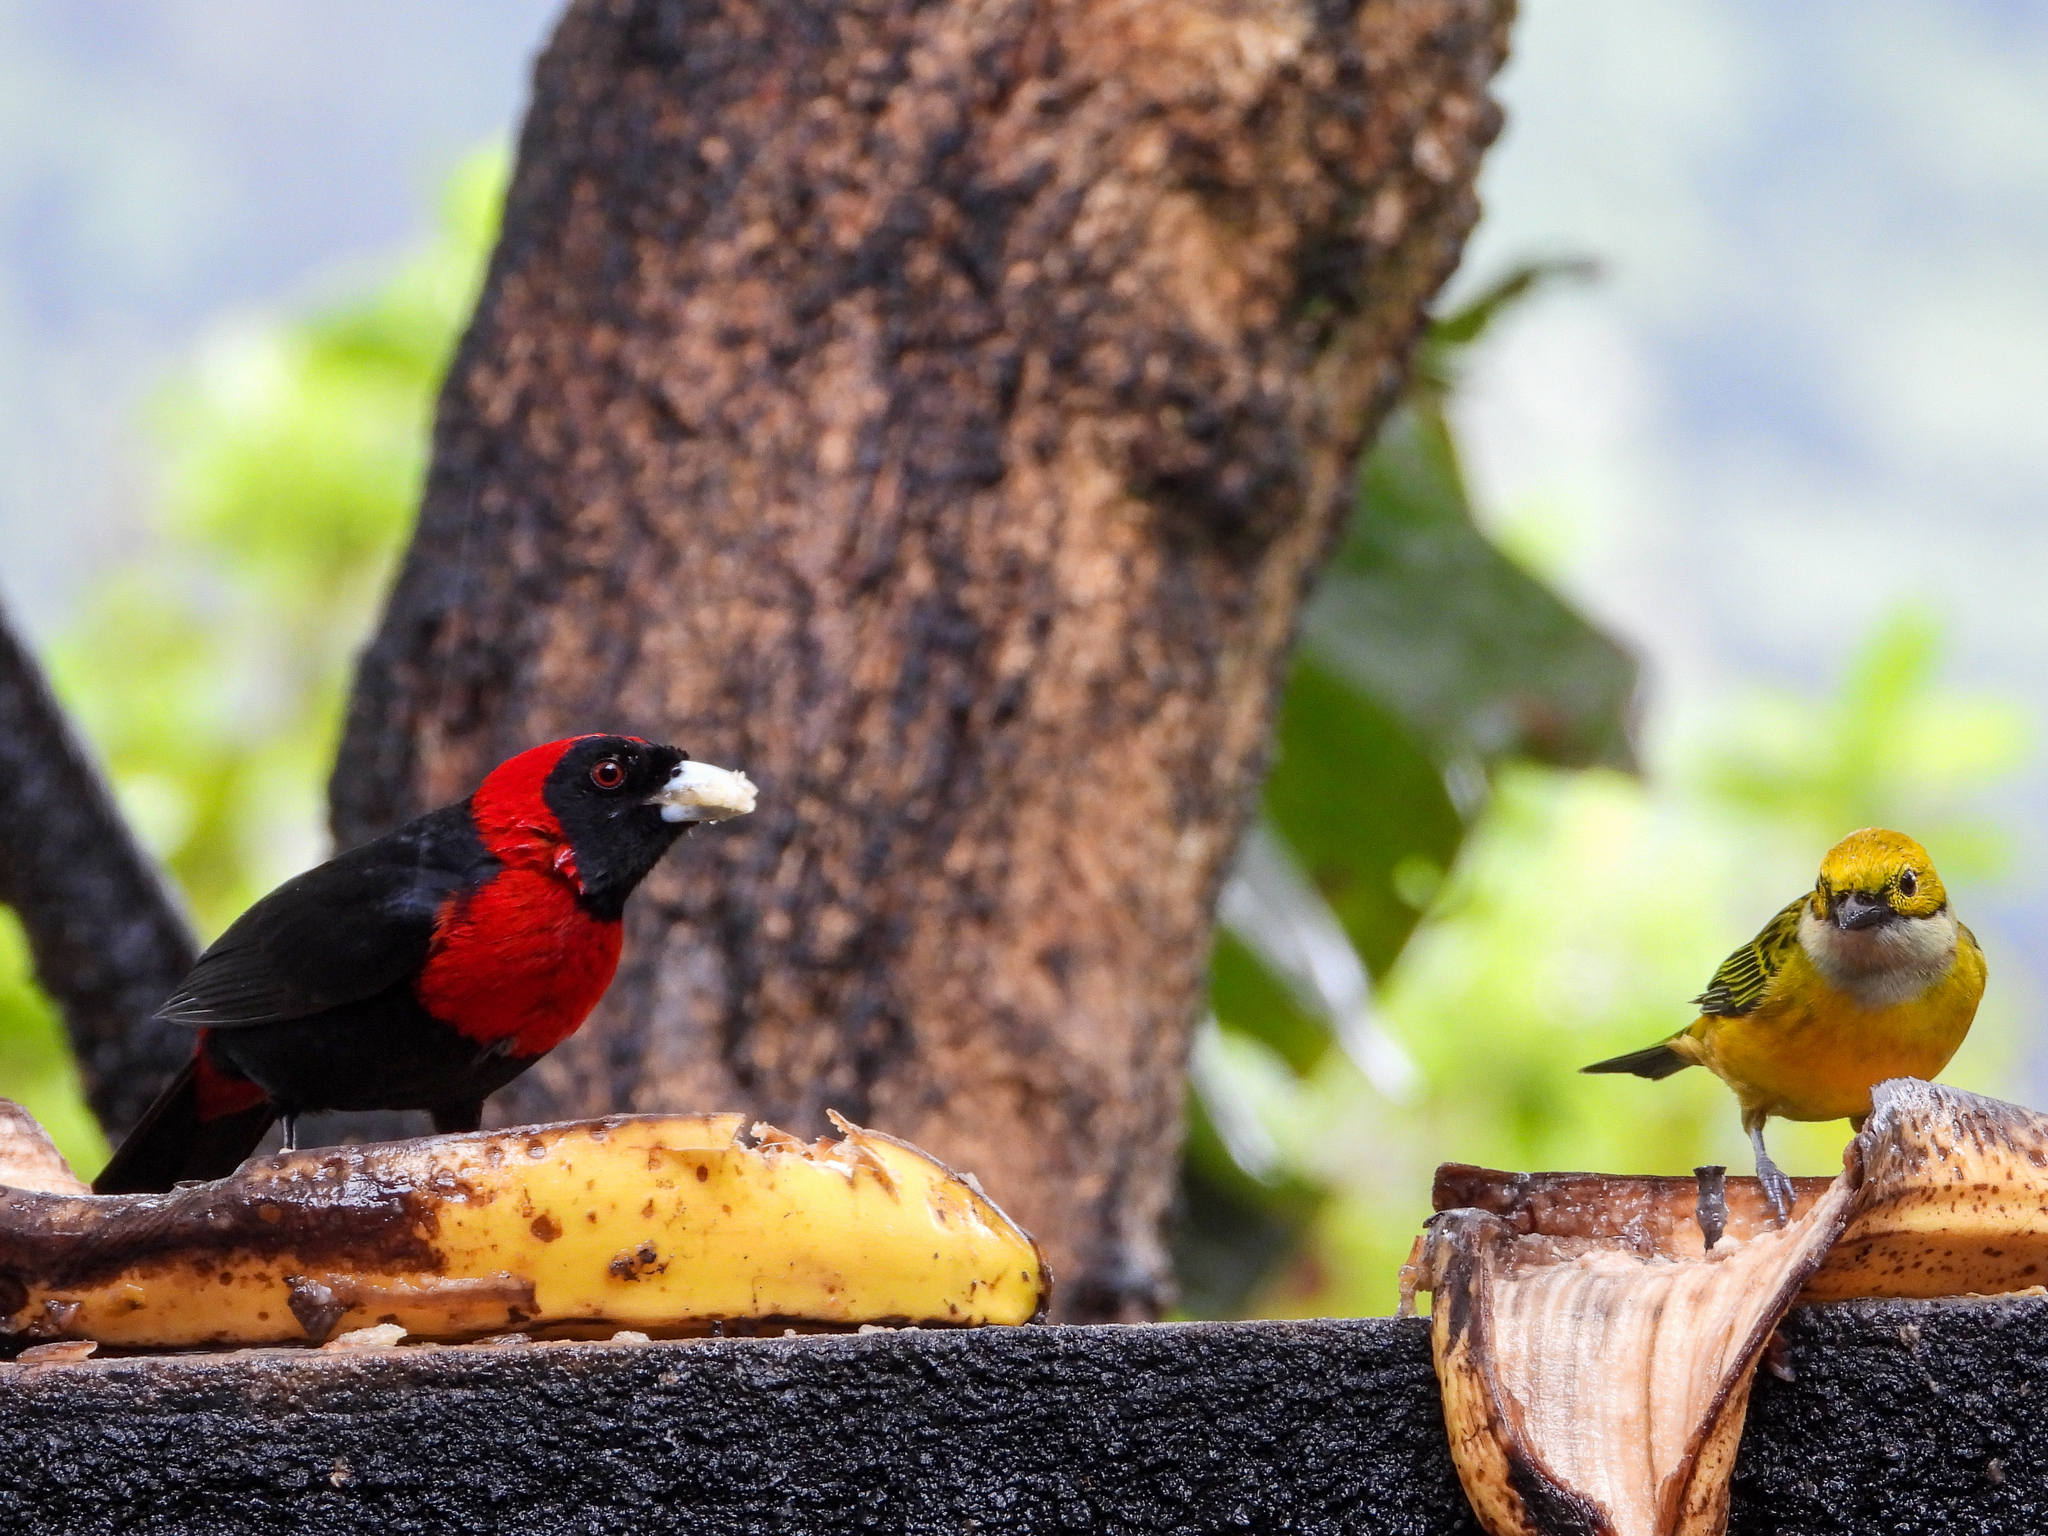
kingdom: Animalia
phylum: Chordata
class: Aves
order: Passeriformes
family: Thraupidae
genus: Ramphocelus
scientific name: Ramphocelus sanguinolentus
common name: Crimson-collared tanager
